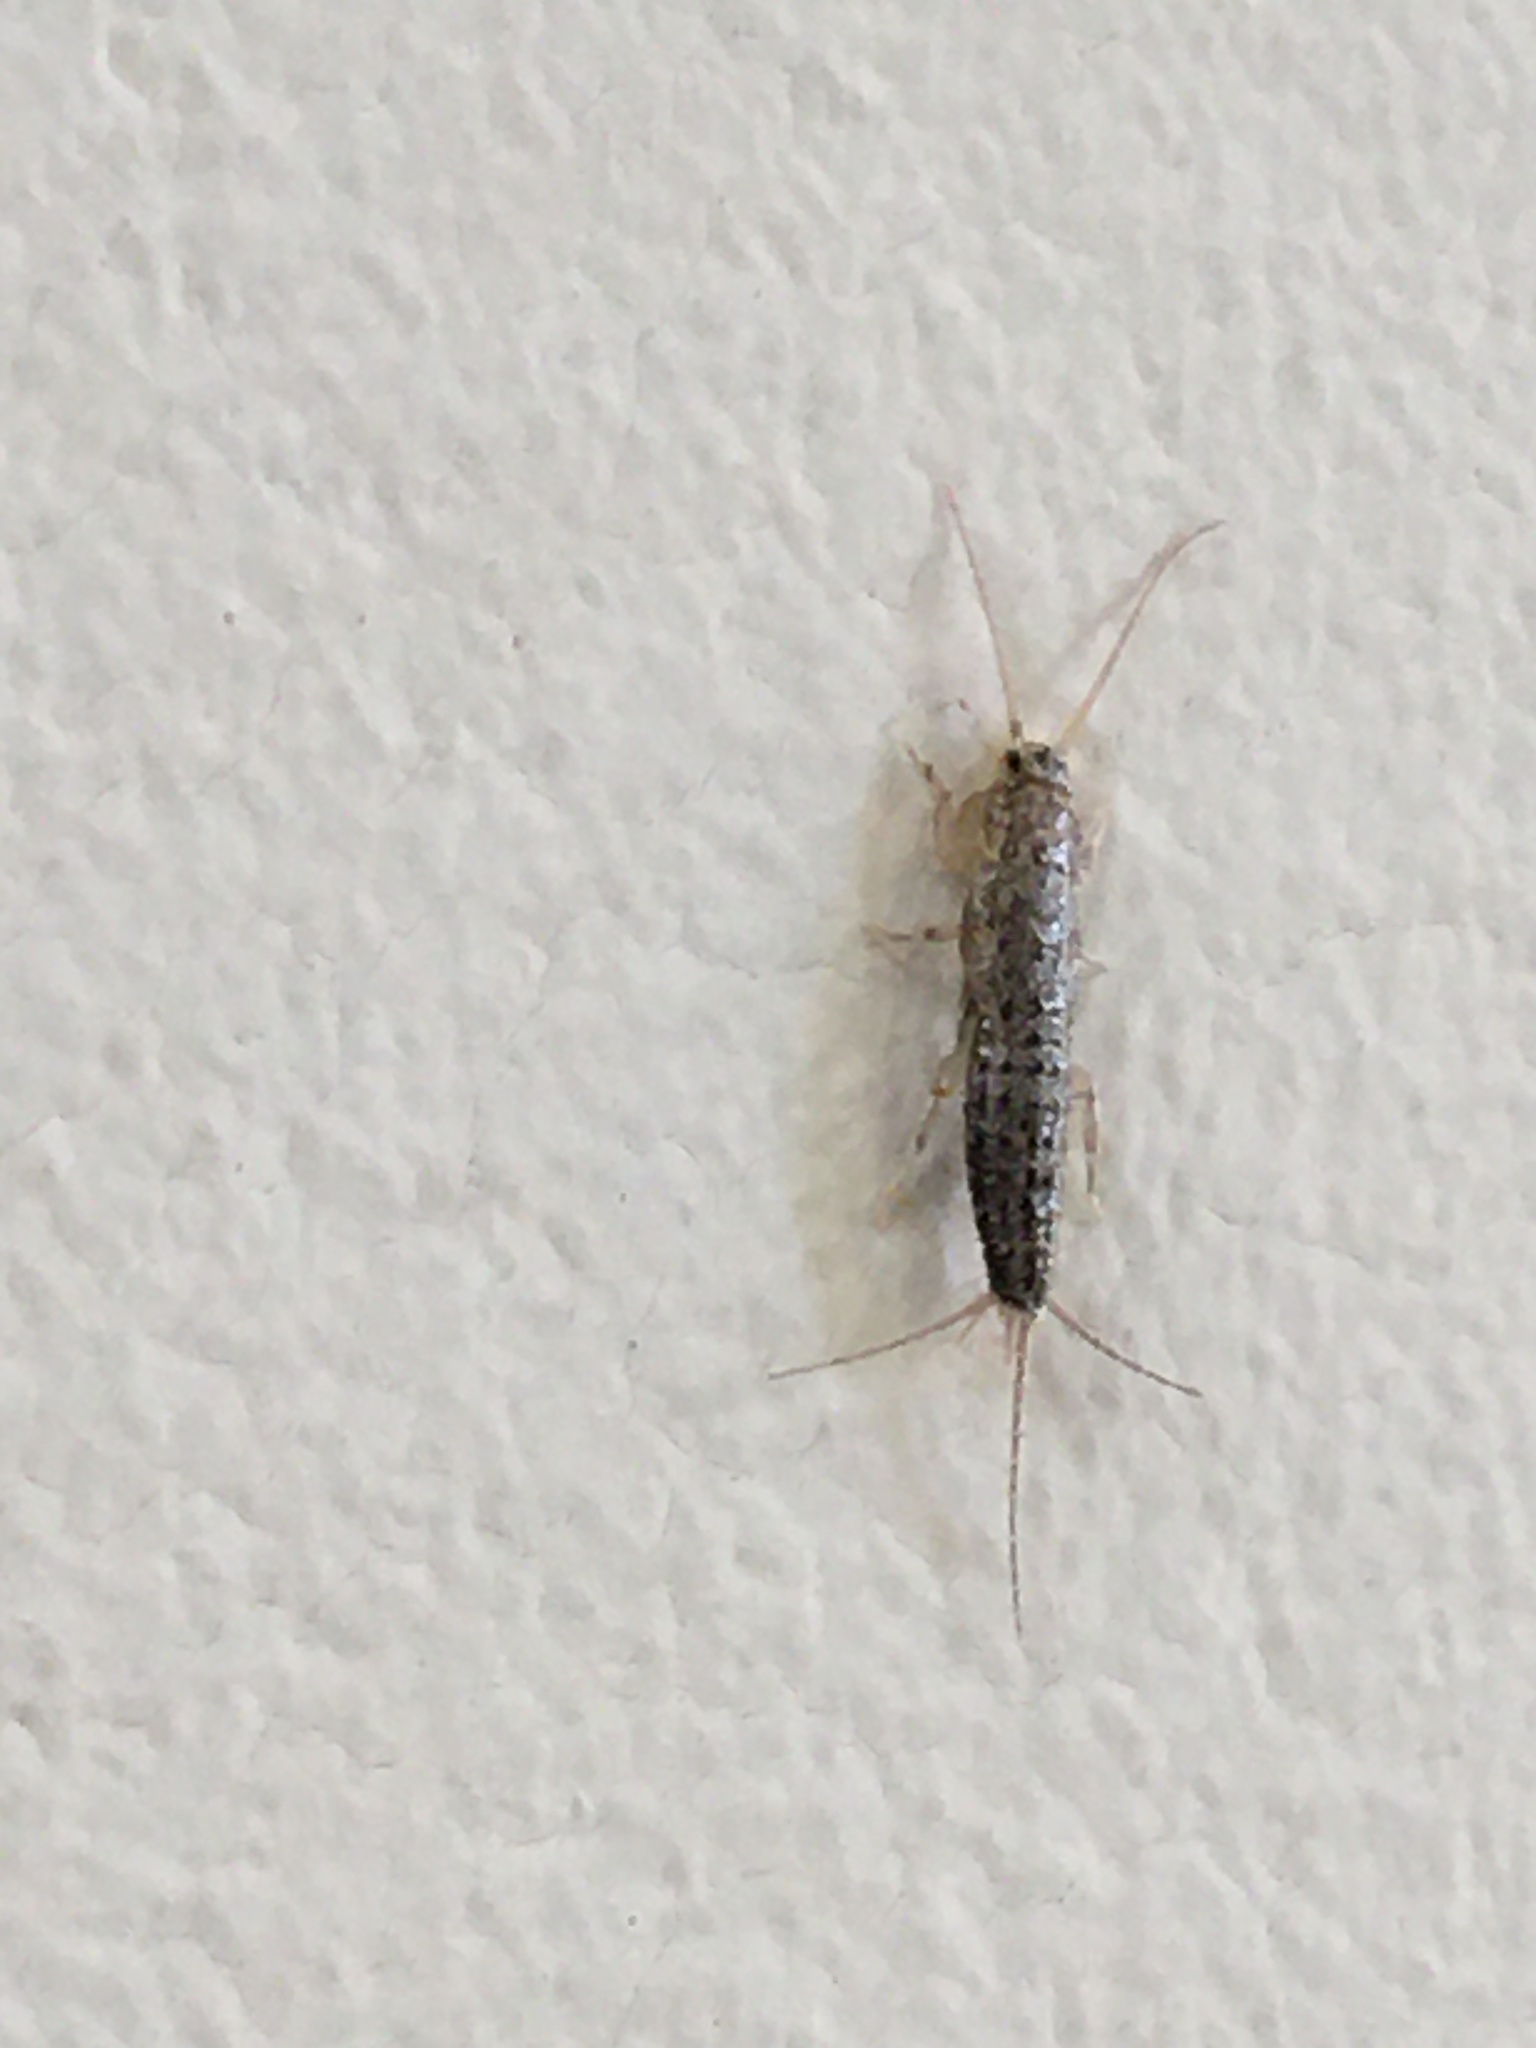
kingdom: Animalia
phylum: Arthropoda
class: Insecta
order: Zygentoma
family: Lepismatidae
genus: Ctenolepisma
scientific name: Ctenolepisma lineata
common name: Four-lined silverfish
